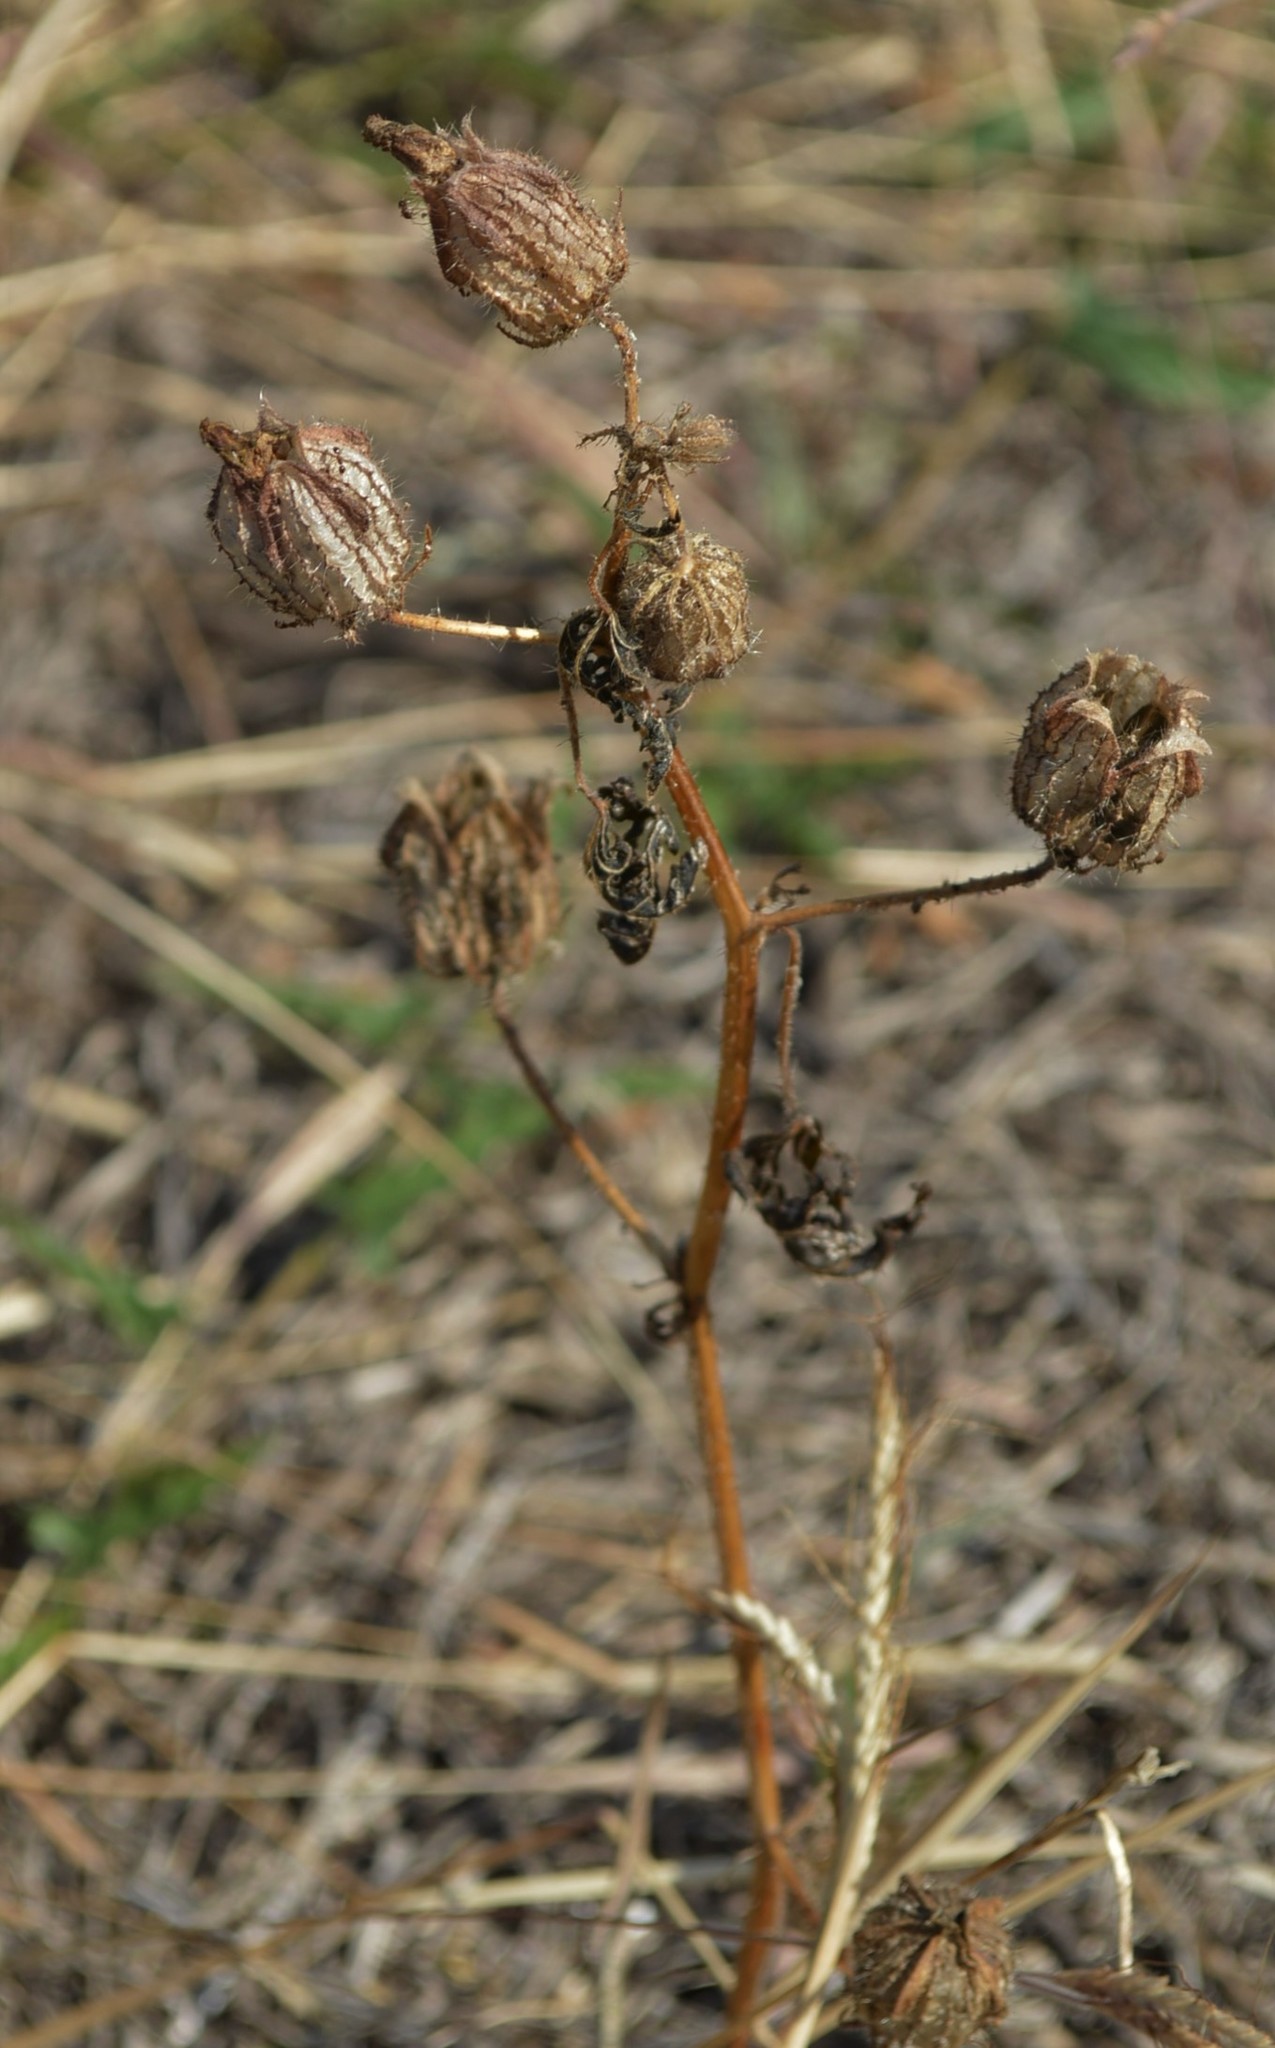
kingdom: Plantae
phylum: Tracheophyta
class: Magnoliopsida
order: Malvales
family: Malvaceae
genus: Hibiscus
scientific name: Hibiscus trionum
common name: Bladder ketmia
